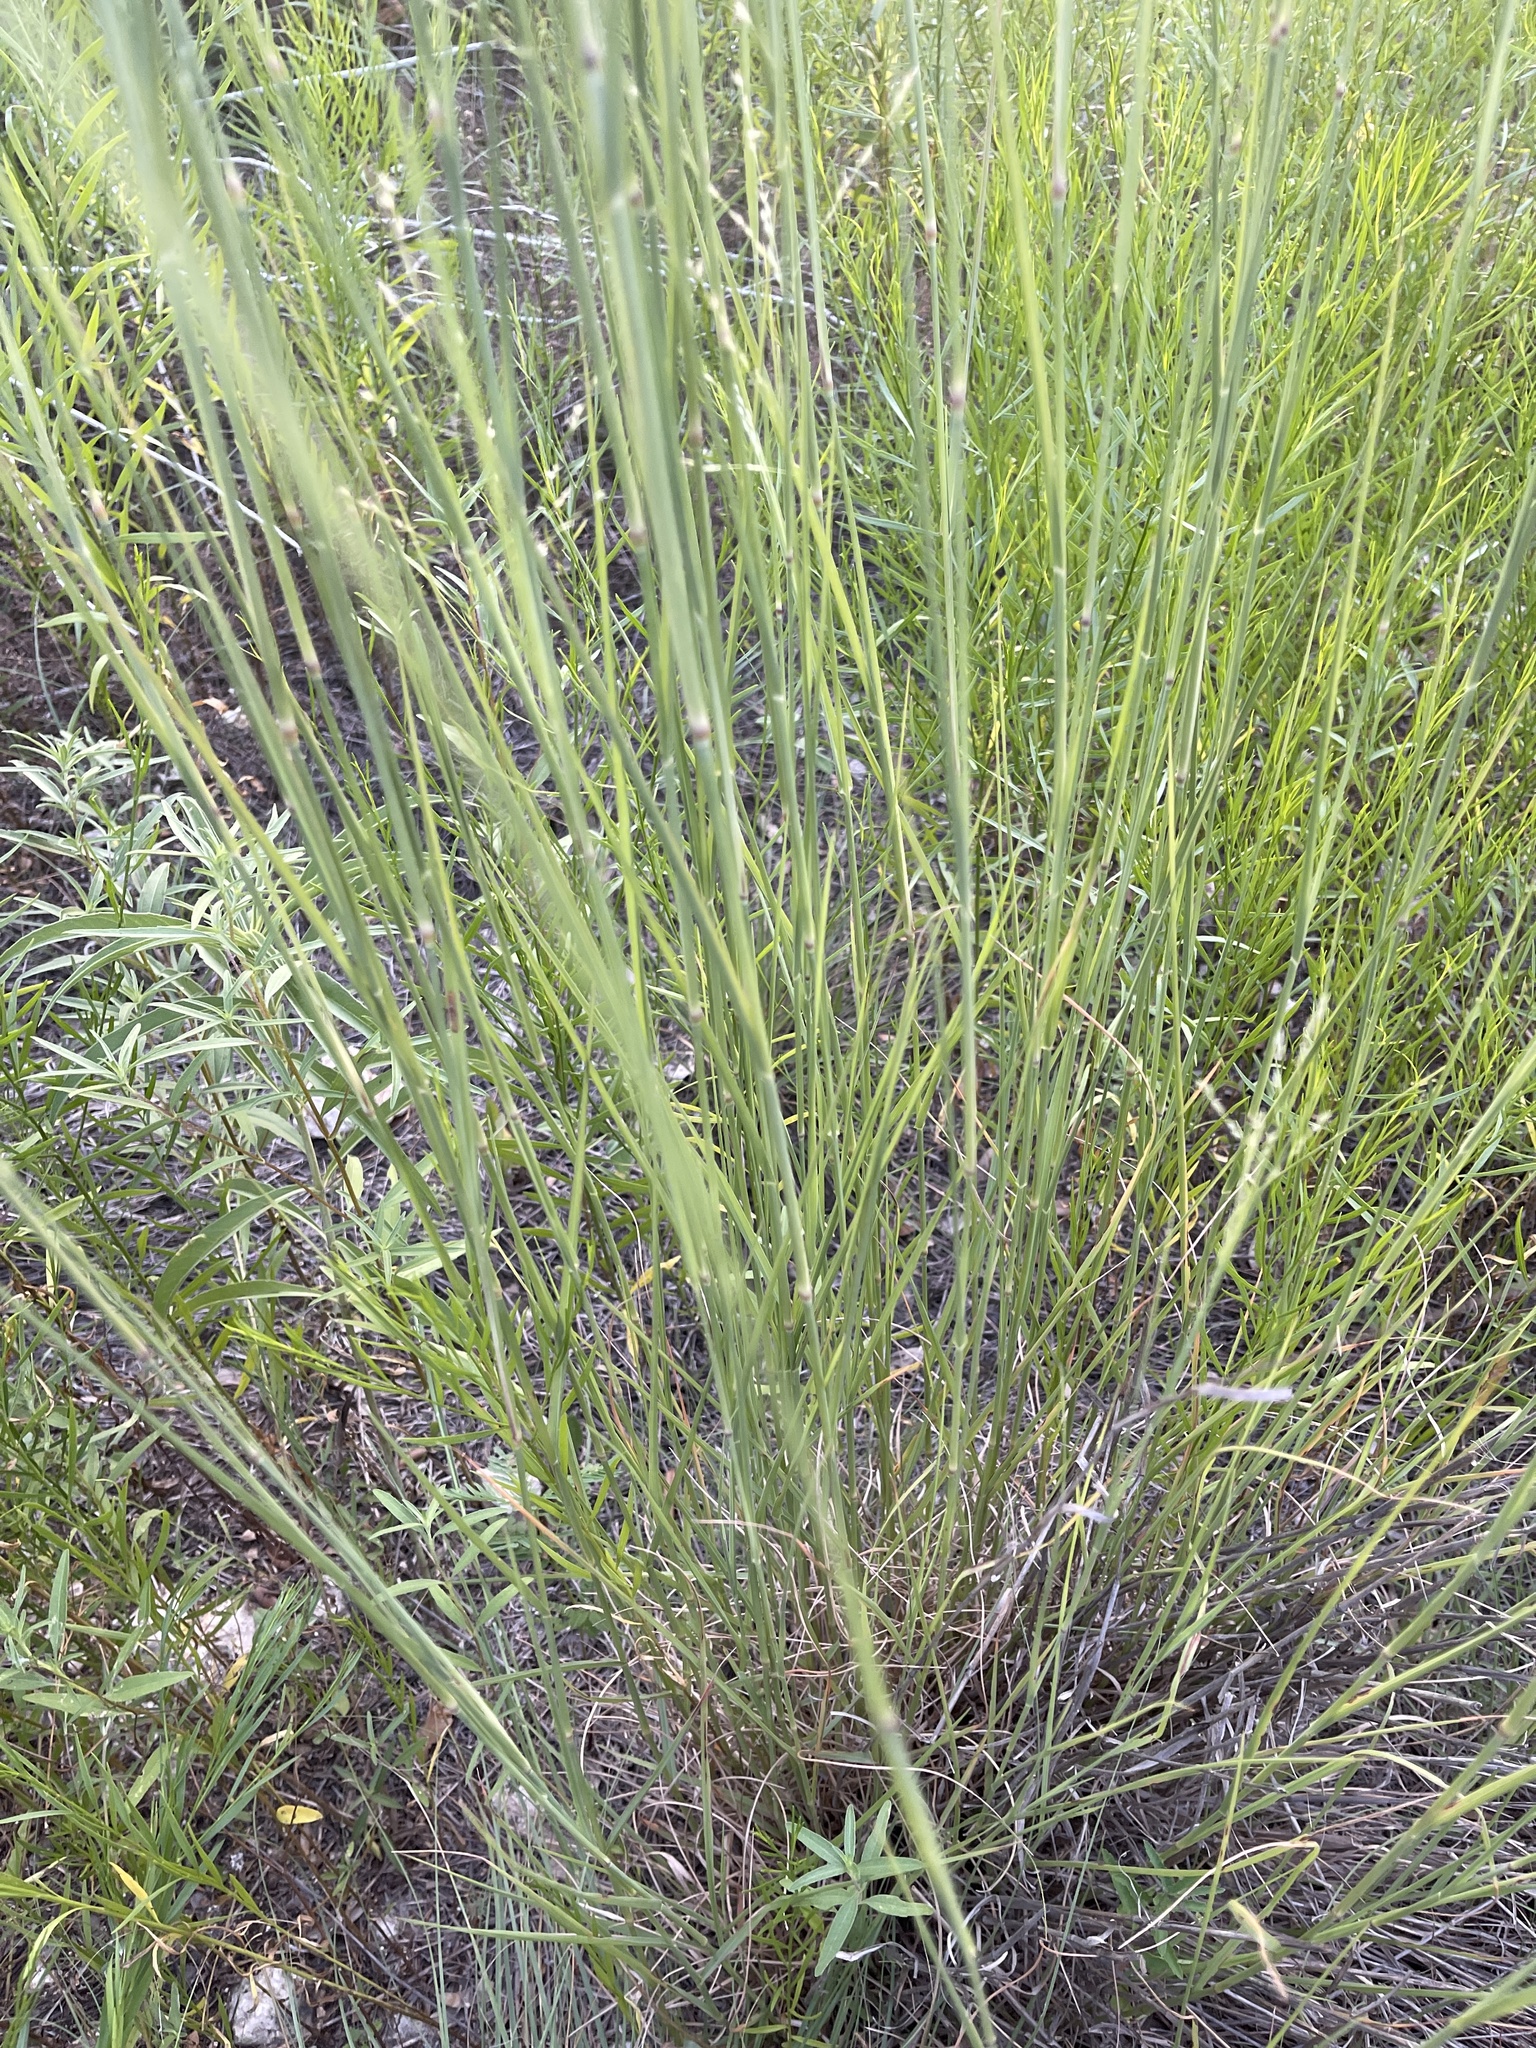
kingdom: Plantae
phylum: Tracheophyta
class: Liliopsida
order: Poales
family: Poaceae
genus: Panicum
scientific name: Panicum coloratum
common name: Kleingrass
